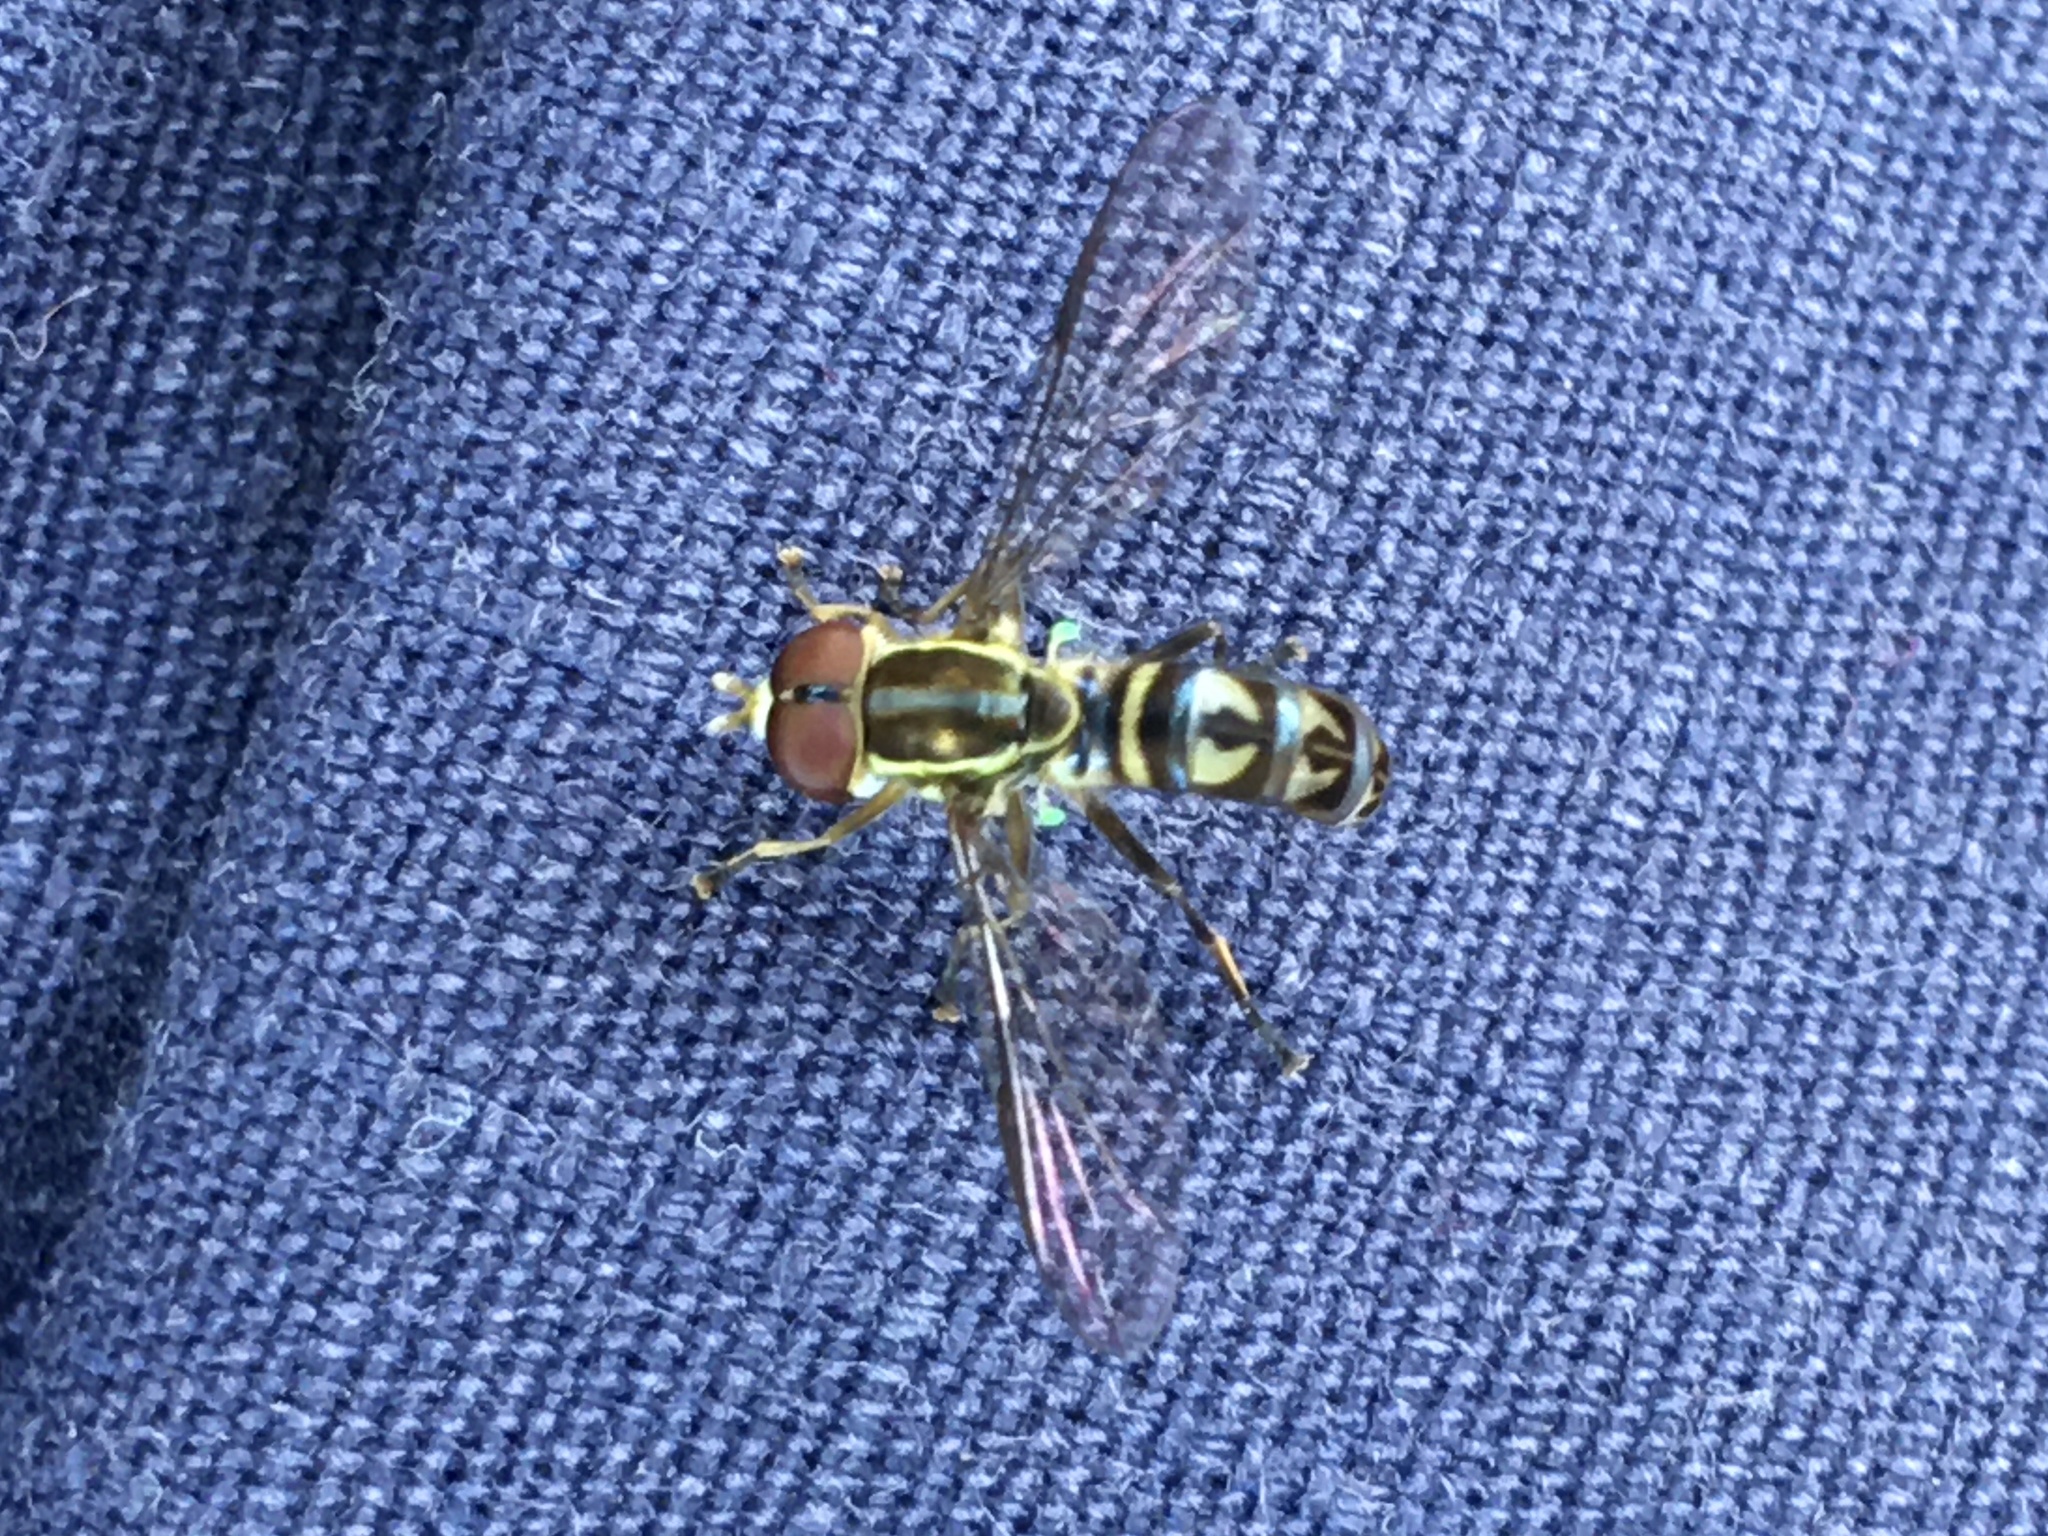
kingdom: Animalia
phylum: Arthropoda
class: Insecta
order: Diptera
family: Syrphidae
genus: Toxomerus
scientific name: Toxomerus tibicen
